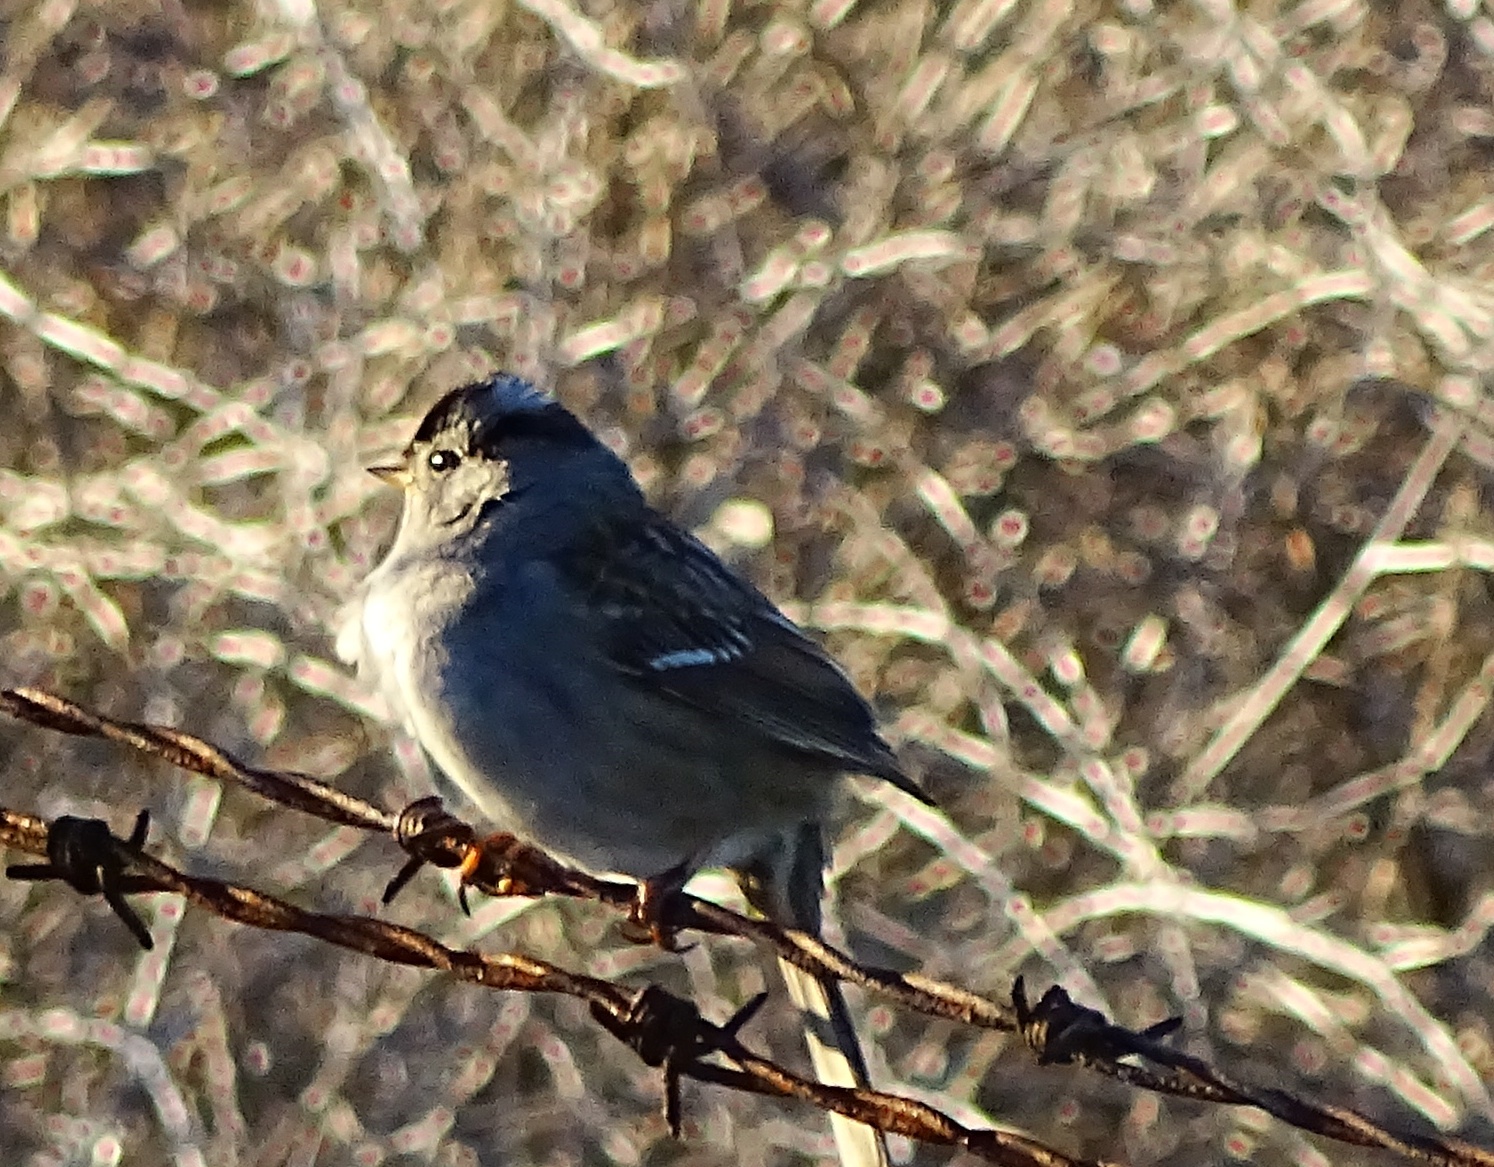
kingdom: Animalia
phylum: Chordata
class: Aves
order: Passeriformes
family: Passerellidae
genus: Zonotrichia
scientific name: Zonotrichia leucophrys
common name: White-crowned sparrow
